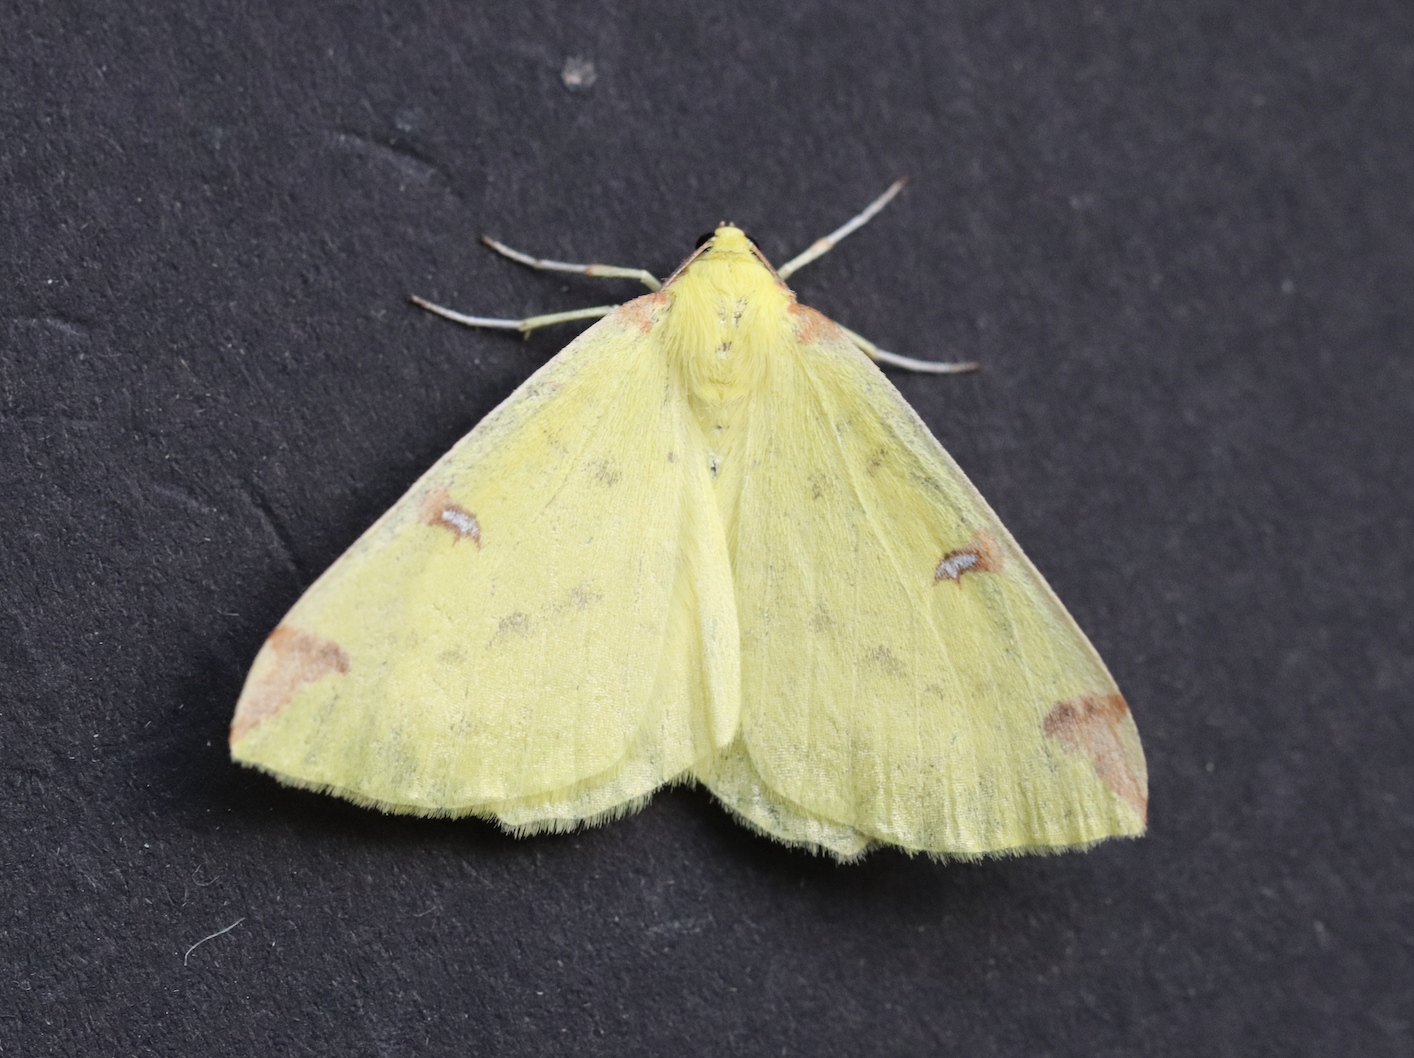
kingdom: Animalia
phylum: Arthropoda
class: Insecta
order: Lepidoptera
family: Geometridae
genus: Opisthograptis
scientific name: Opisthograptis luteolata
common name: Brimstone moth
